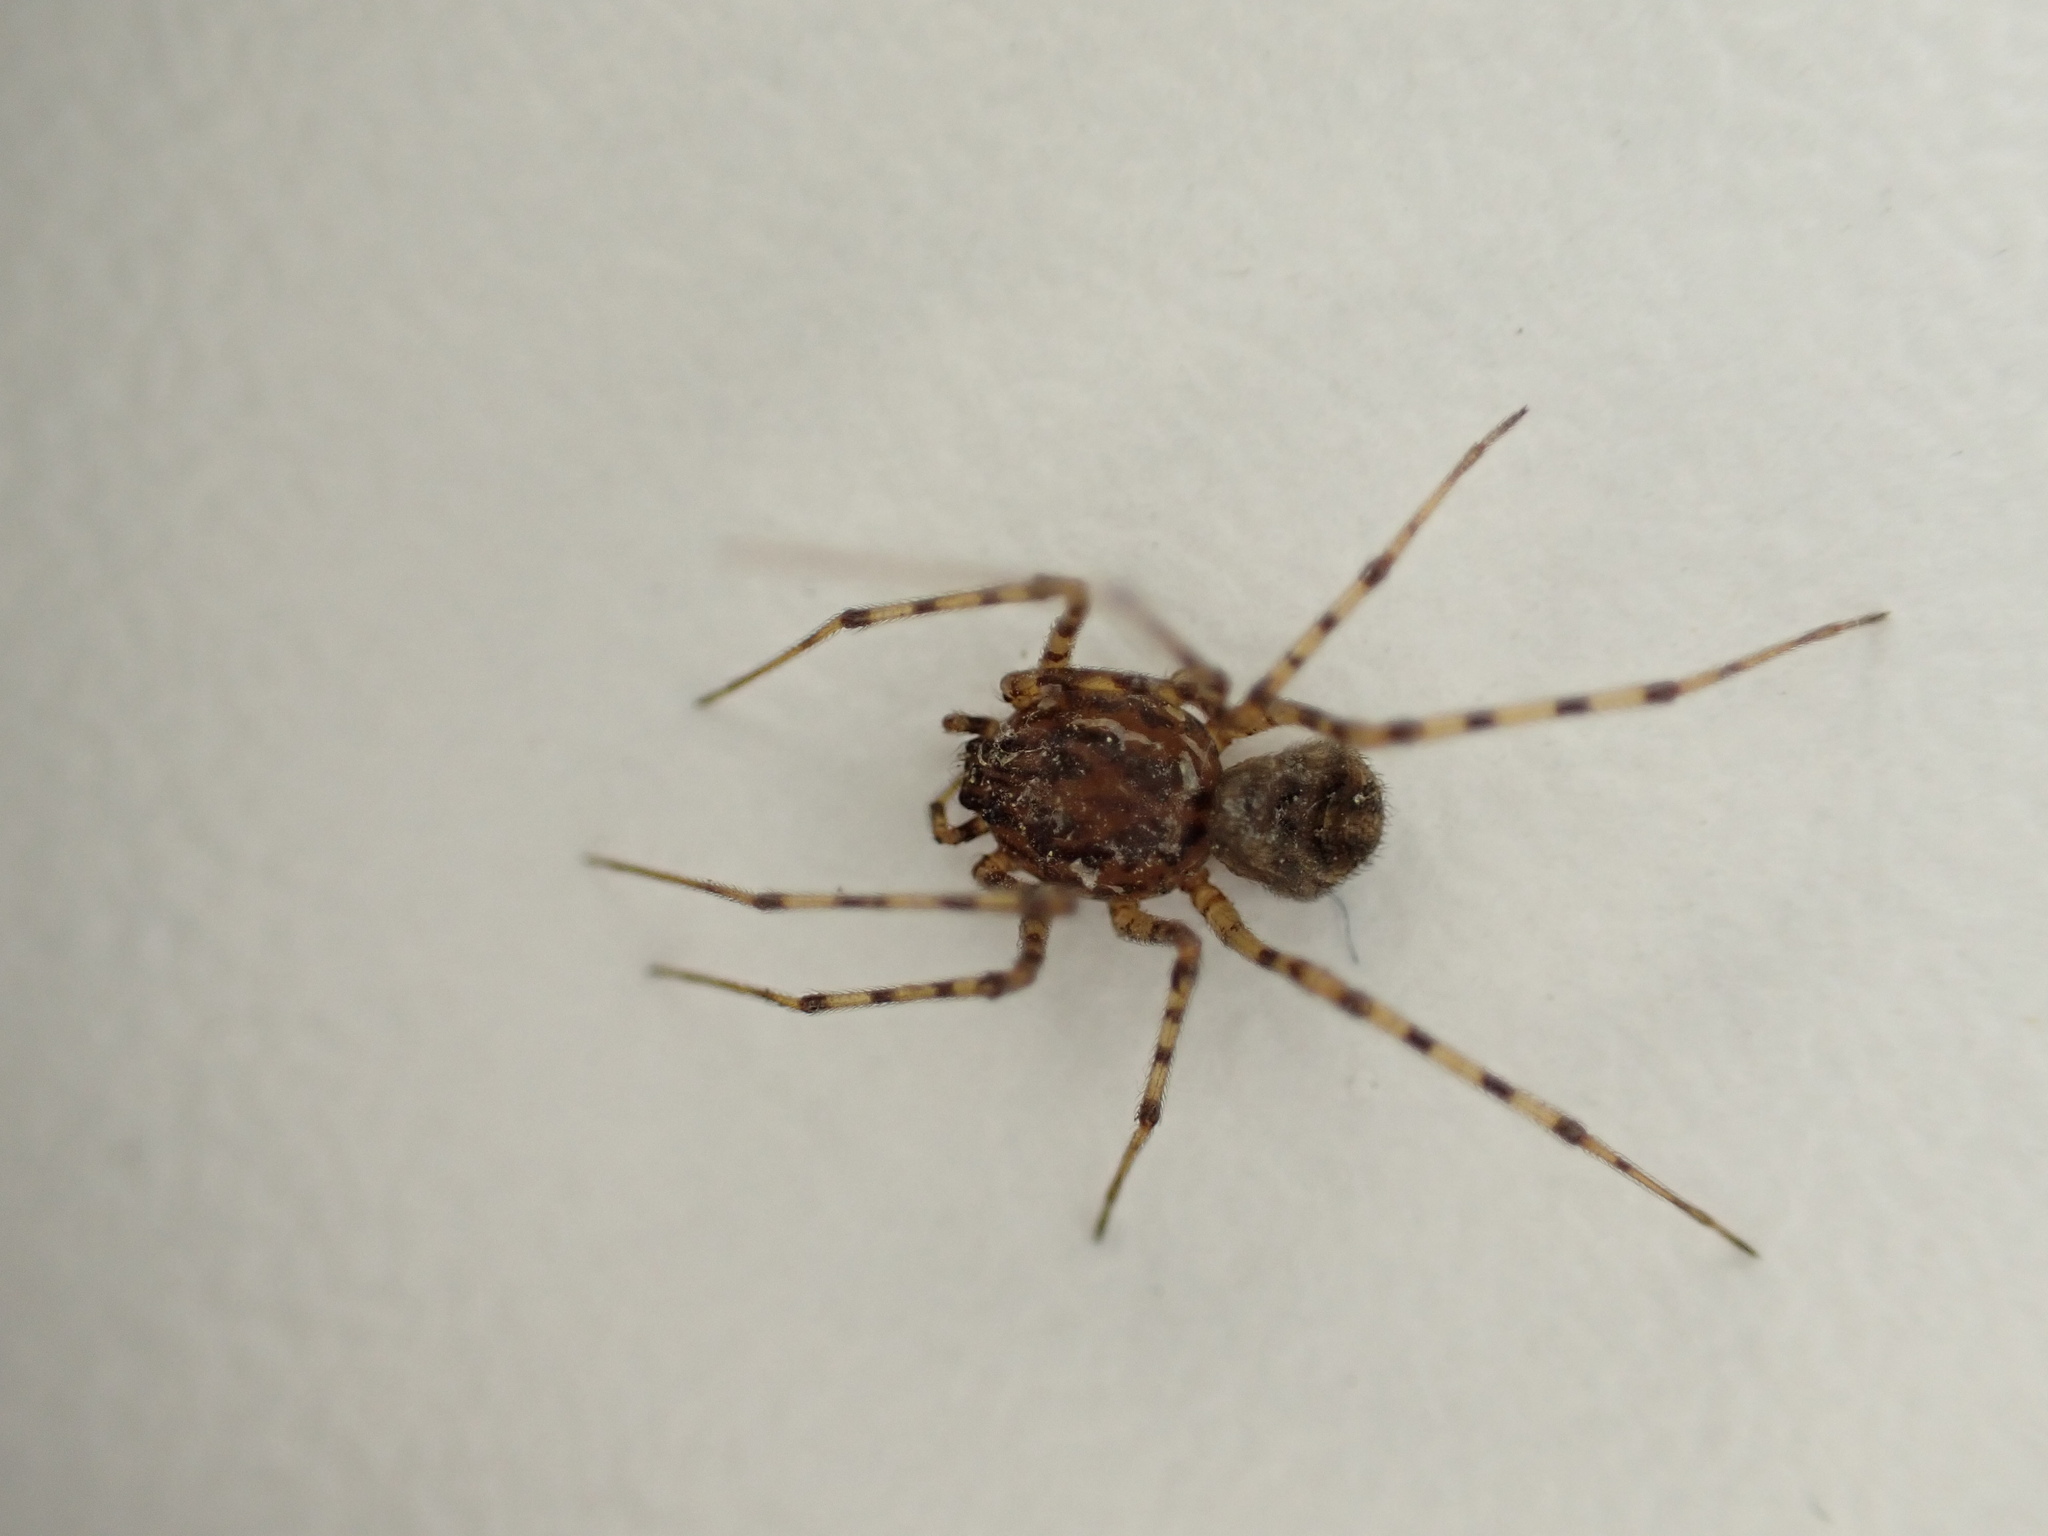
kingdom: Animalia
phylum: Arthropoda
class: Arachnida
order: Araneae
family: Scytodidae
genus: Scytodes
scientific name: Scytodes thoracica
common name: Spitting spider
